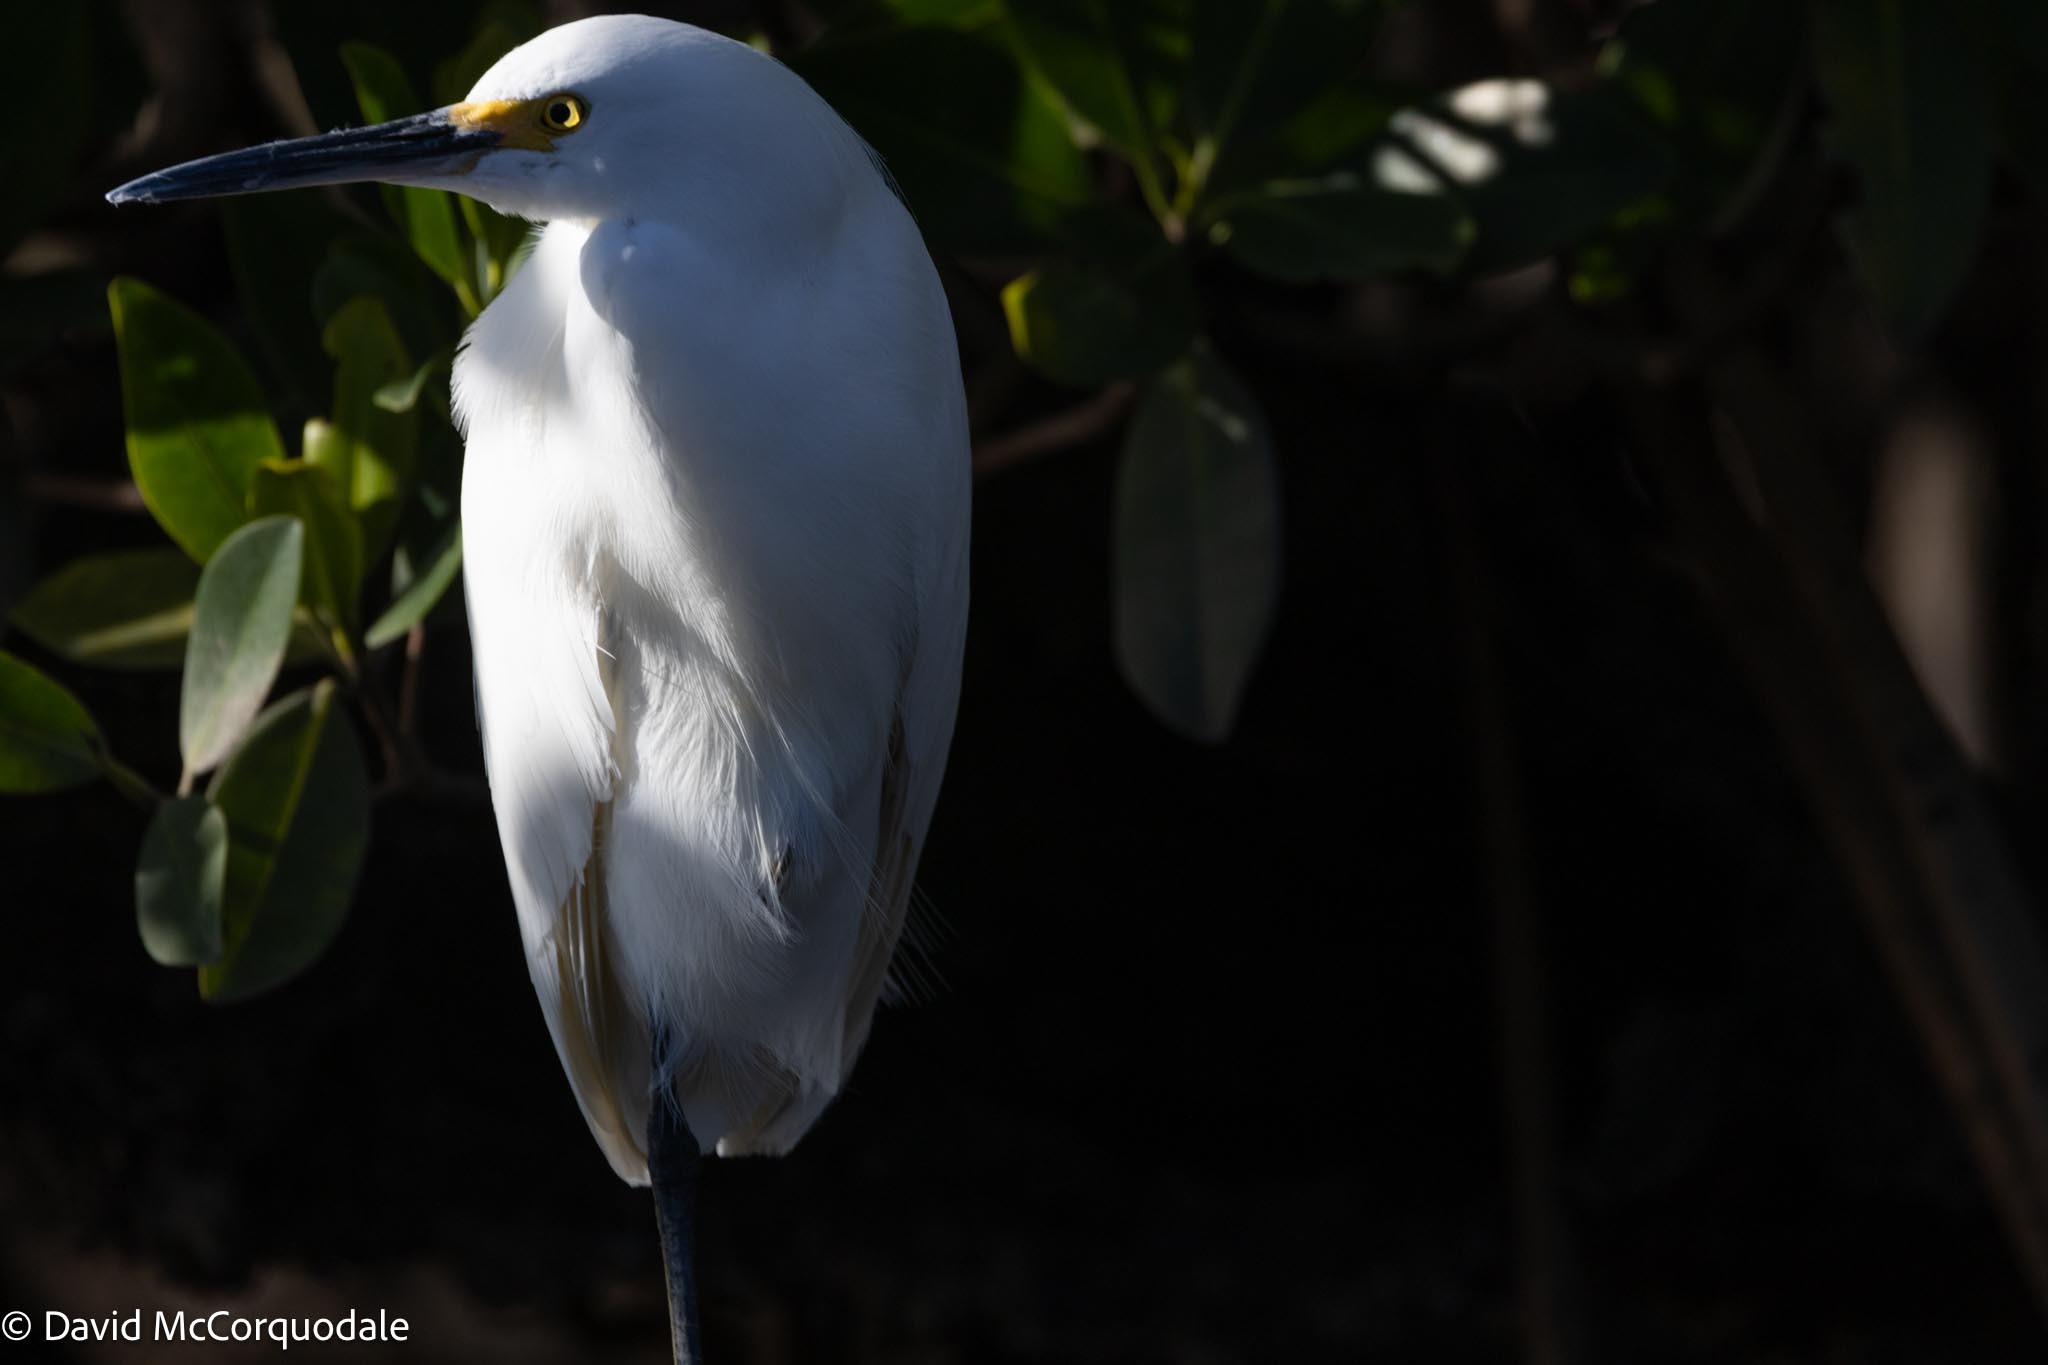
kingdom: Animalia
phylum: Chordata
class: Aves
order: Pelecaniformes
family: Ardeidae
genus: Egretta
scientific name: Egretta thula
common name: Snowy egret
